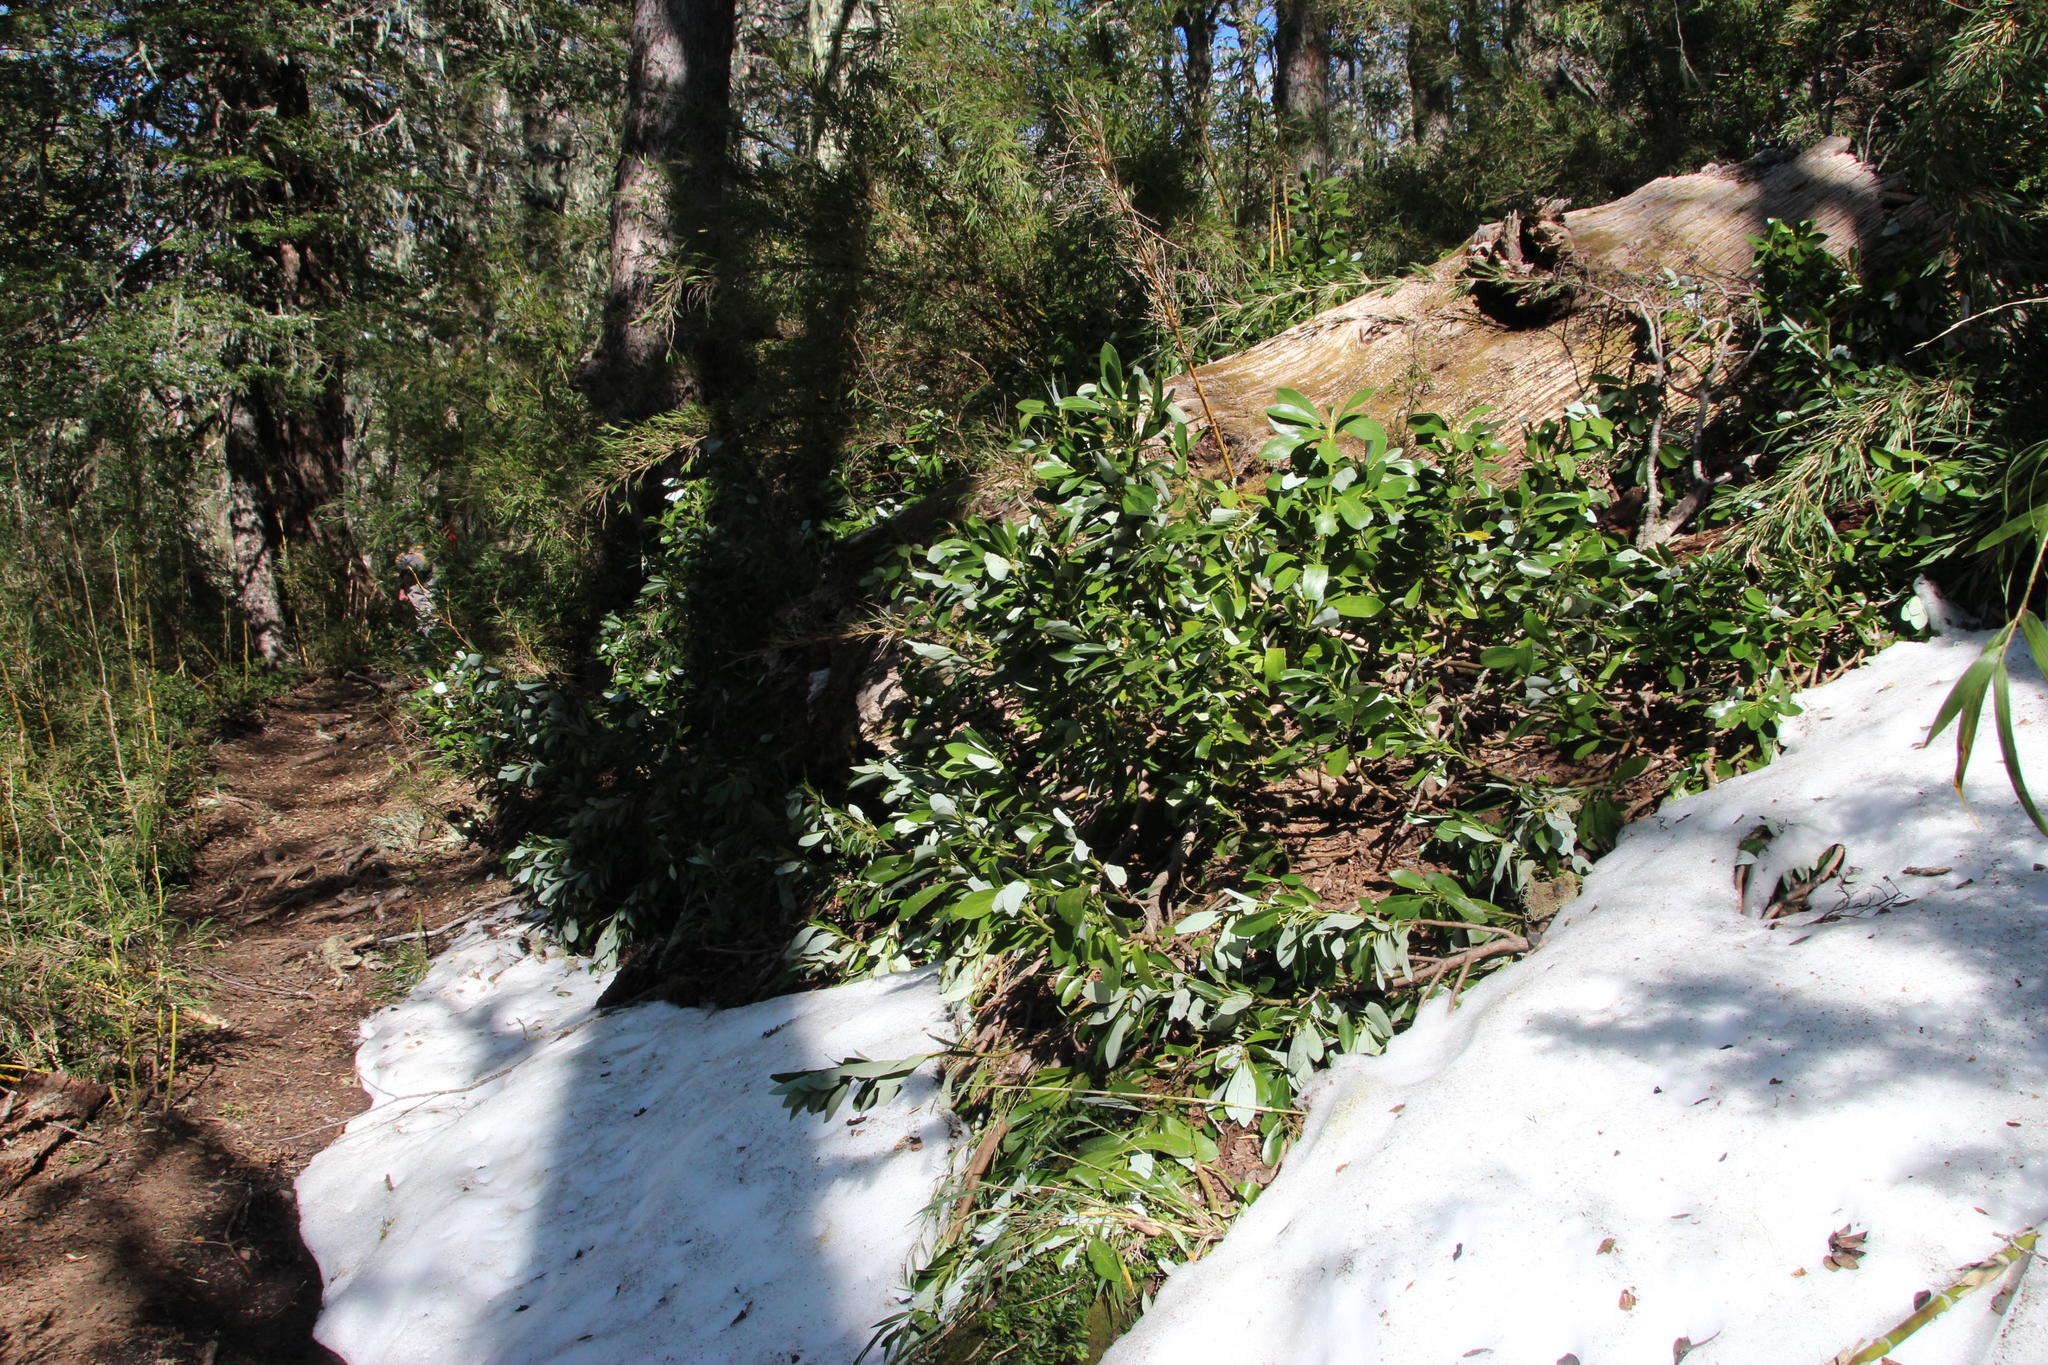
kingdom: Plantae
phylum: Tracheophyta
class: Magnoliopsida
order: Canellales
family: Winteraceae
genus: Drimys
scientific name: Drimys andina
